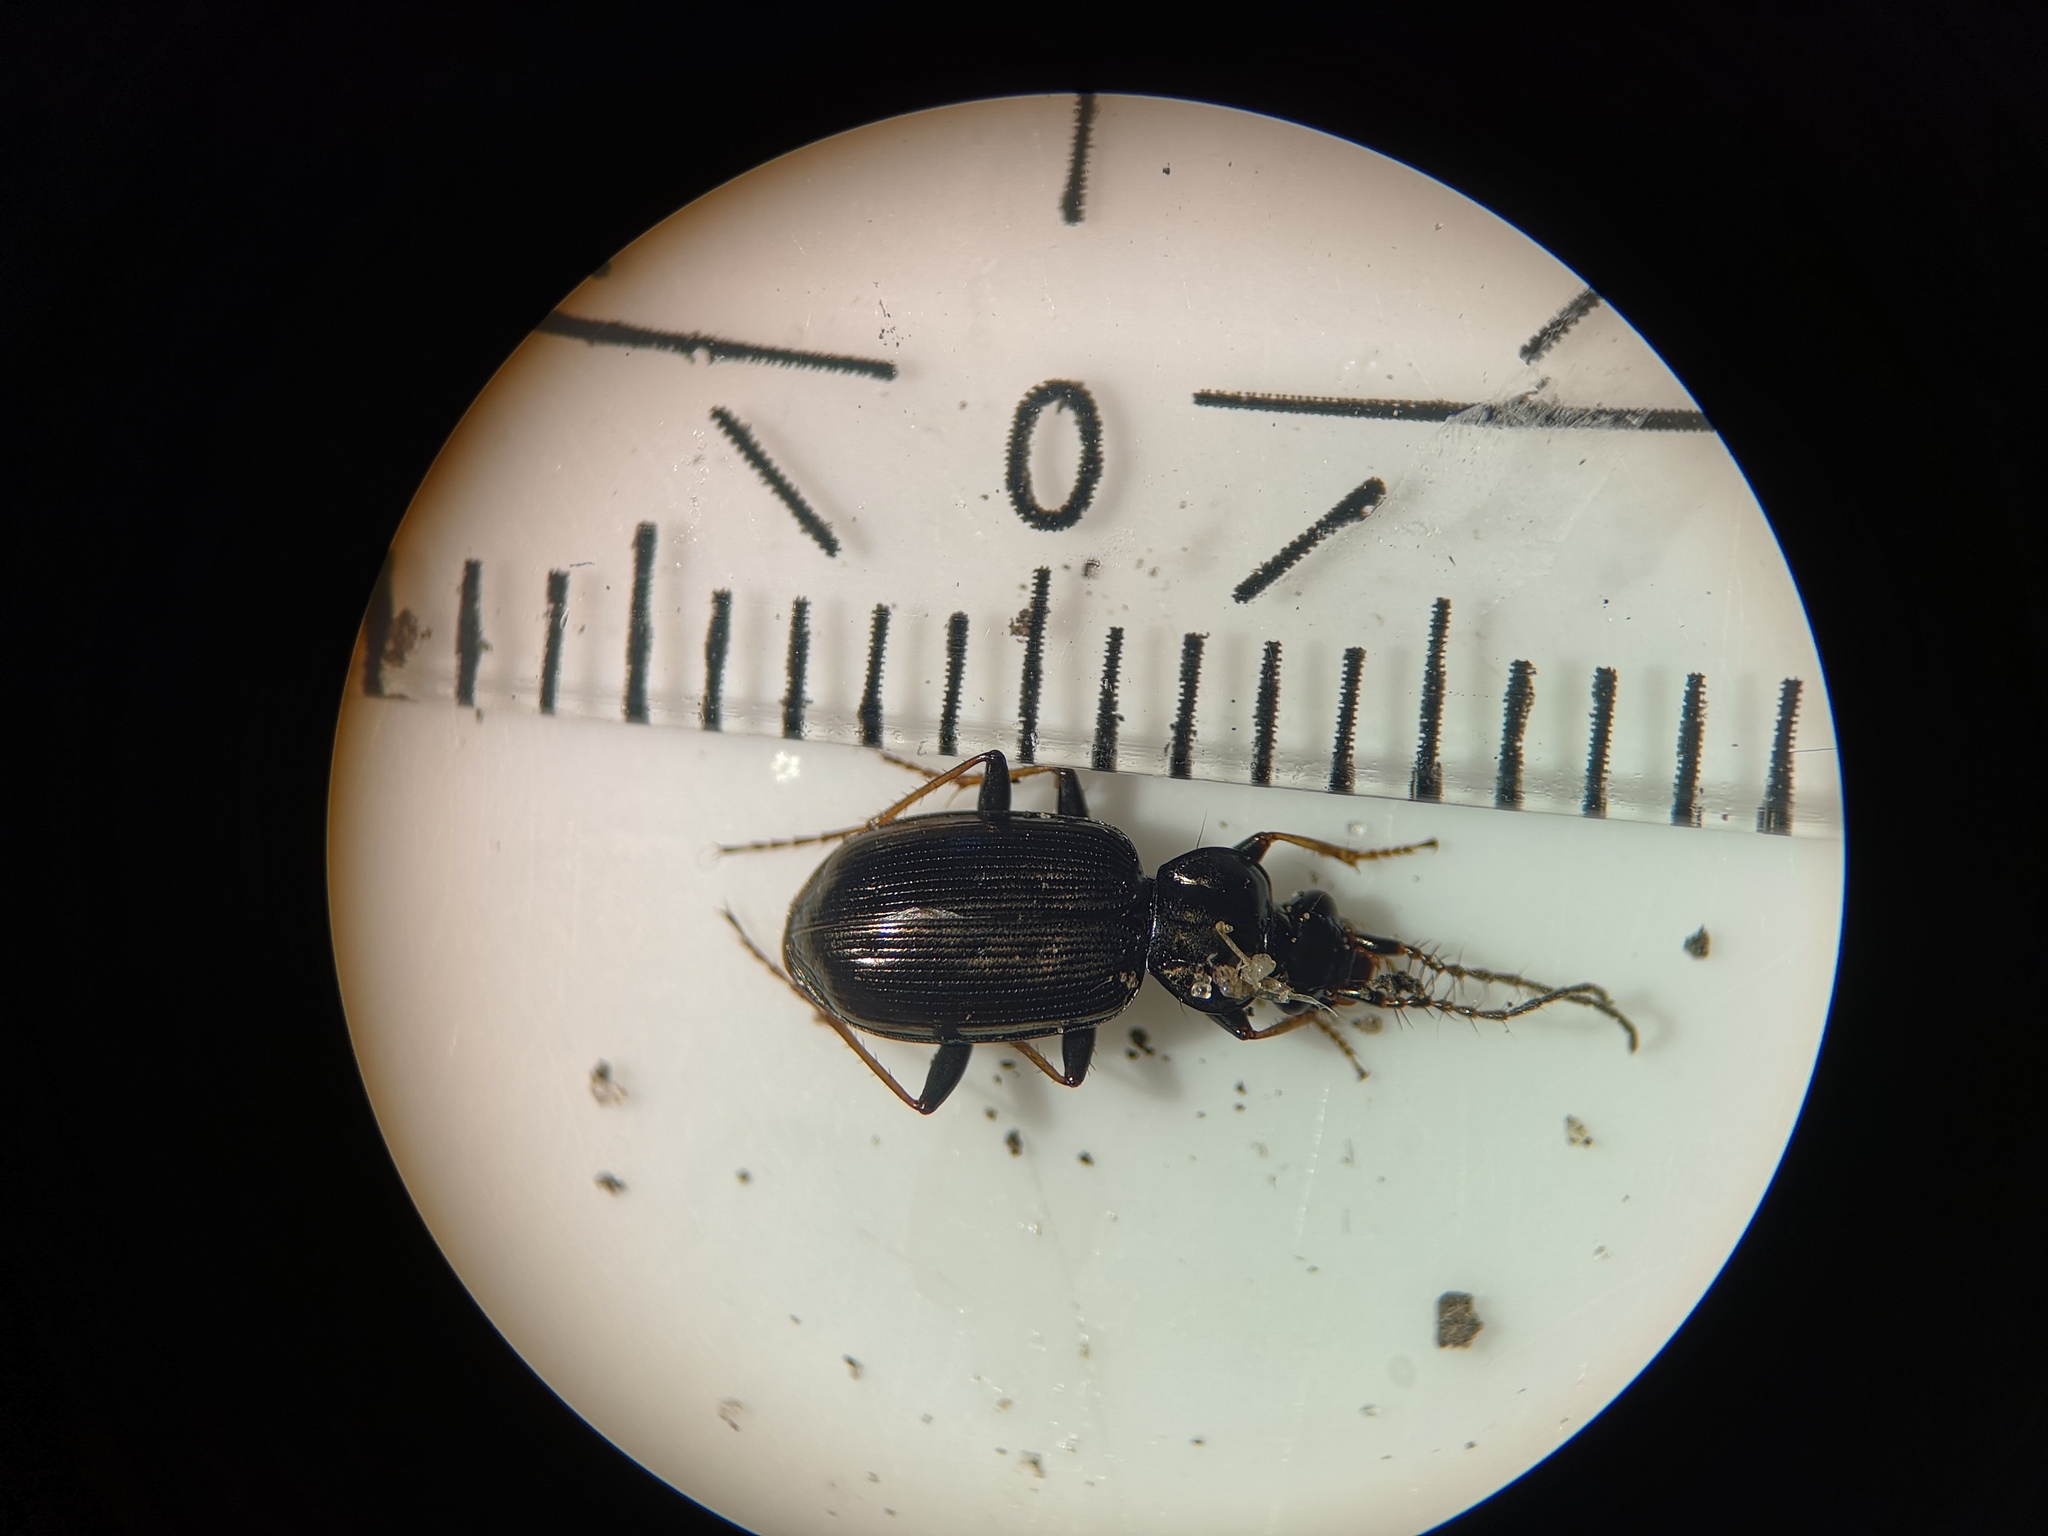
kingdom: Animalia
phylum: Arthropoda
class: Insecta
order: Coleoptera
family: Carabidae
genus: Loricera
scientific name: Loricera pilicornis
